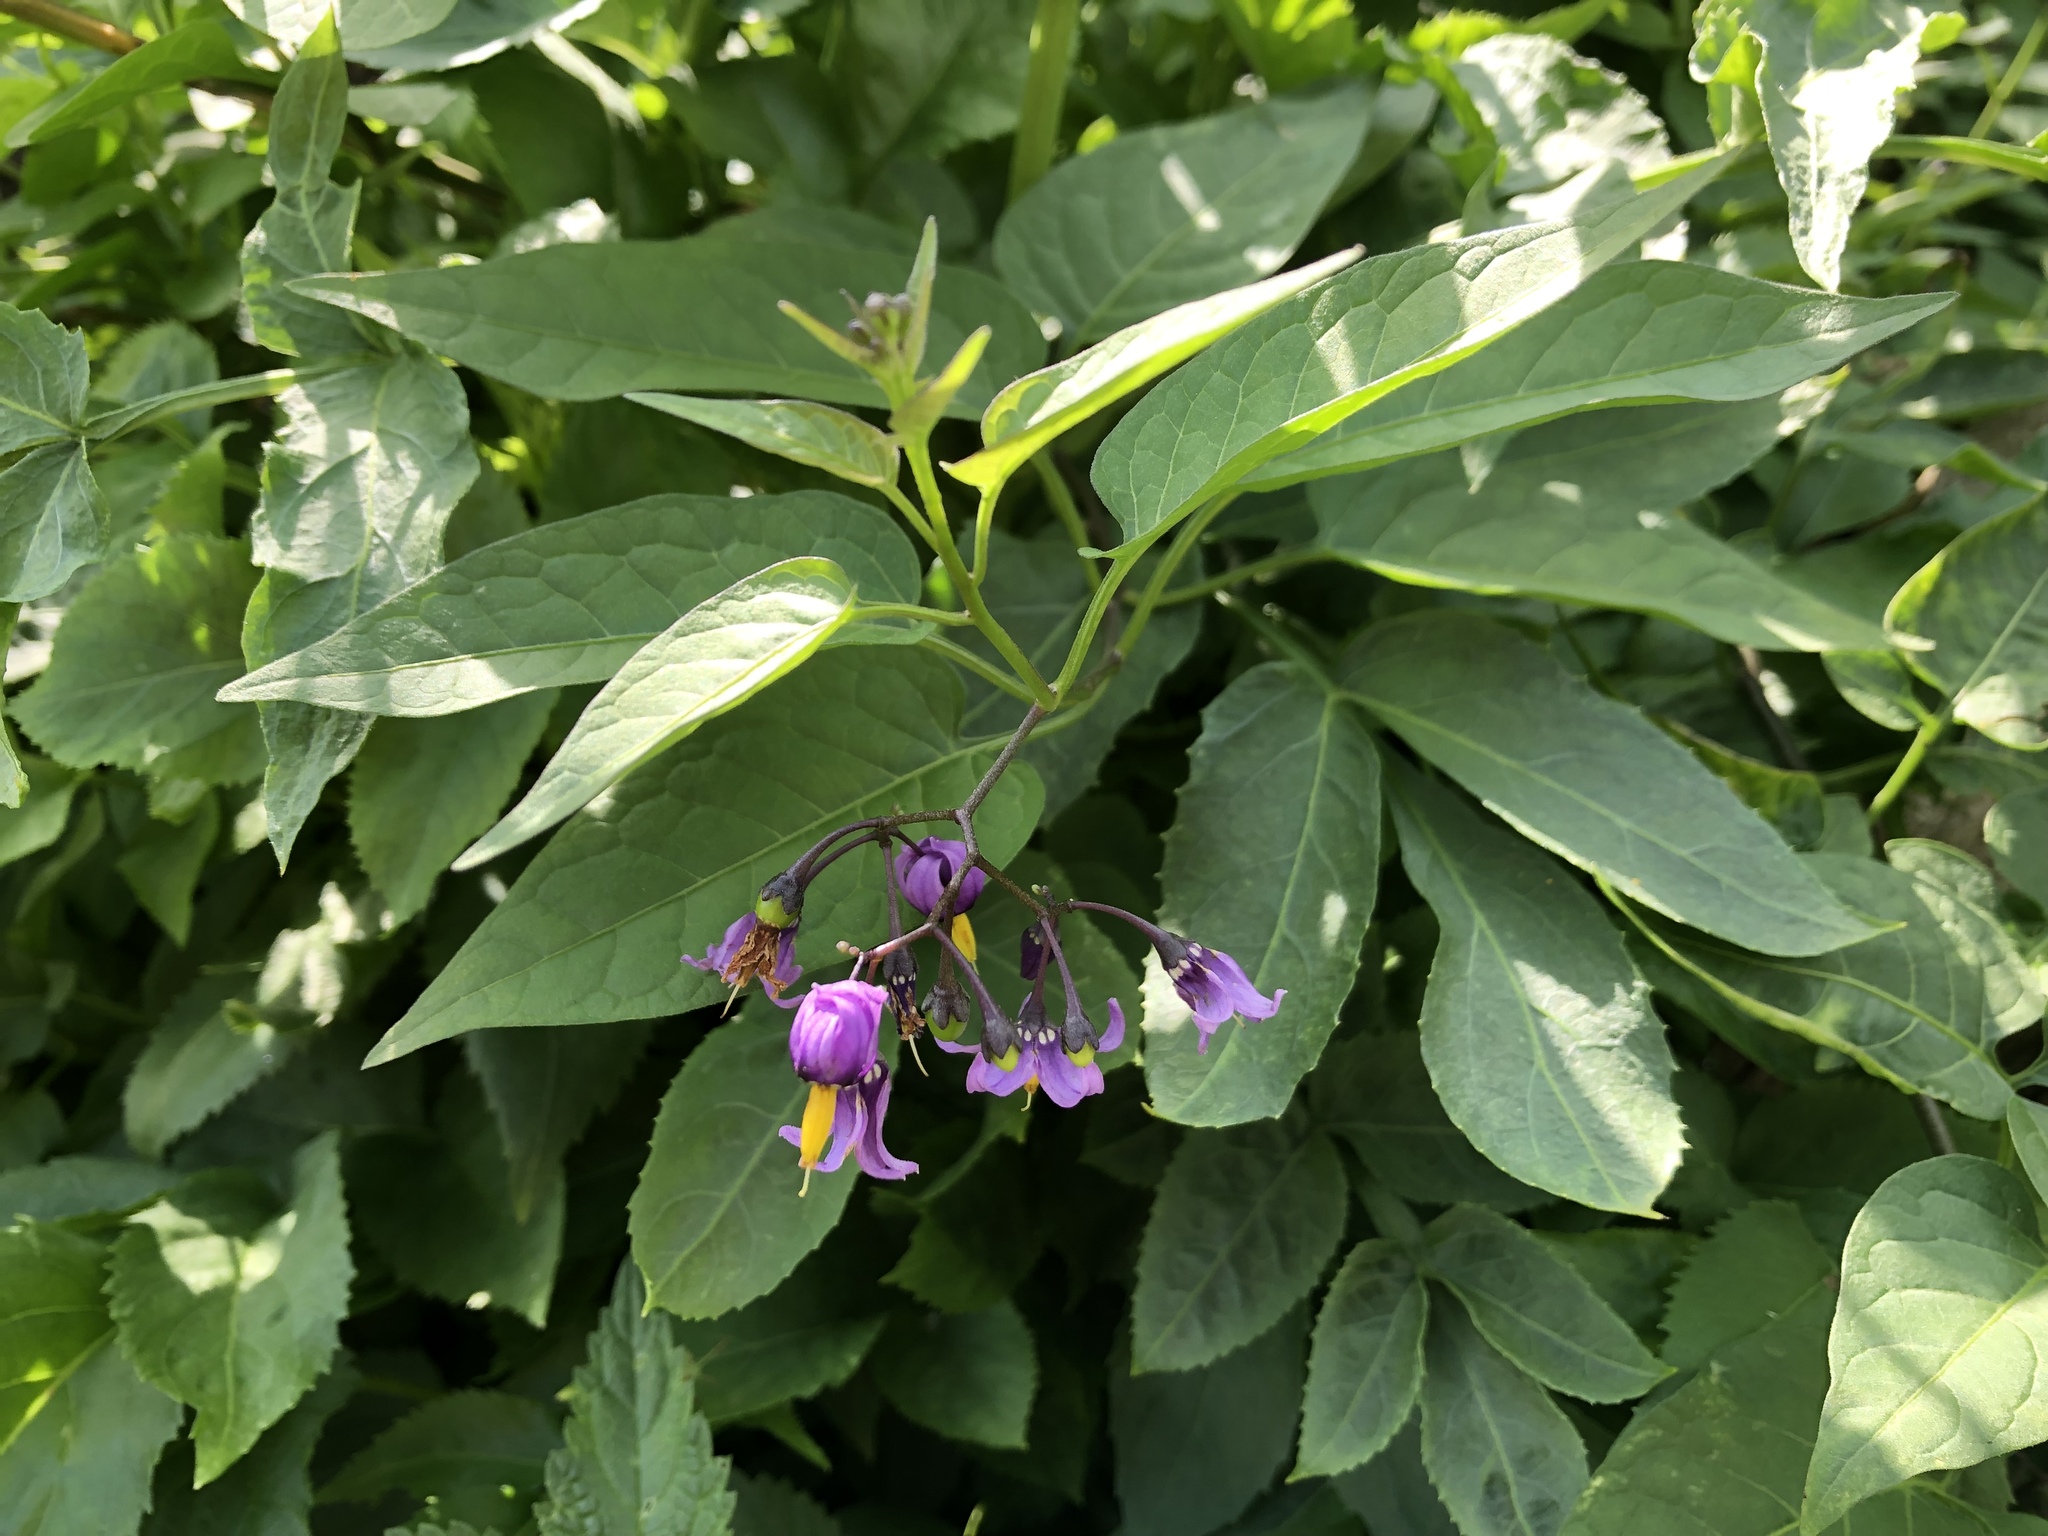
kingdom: Plantae
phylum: Tracheophyta
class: Magnoliopsida
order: Solanales
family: Solanaceae
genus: Solanum
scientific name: Solanum dulcamara
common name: Climbing nightshade
